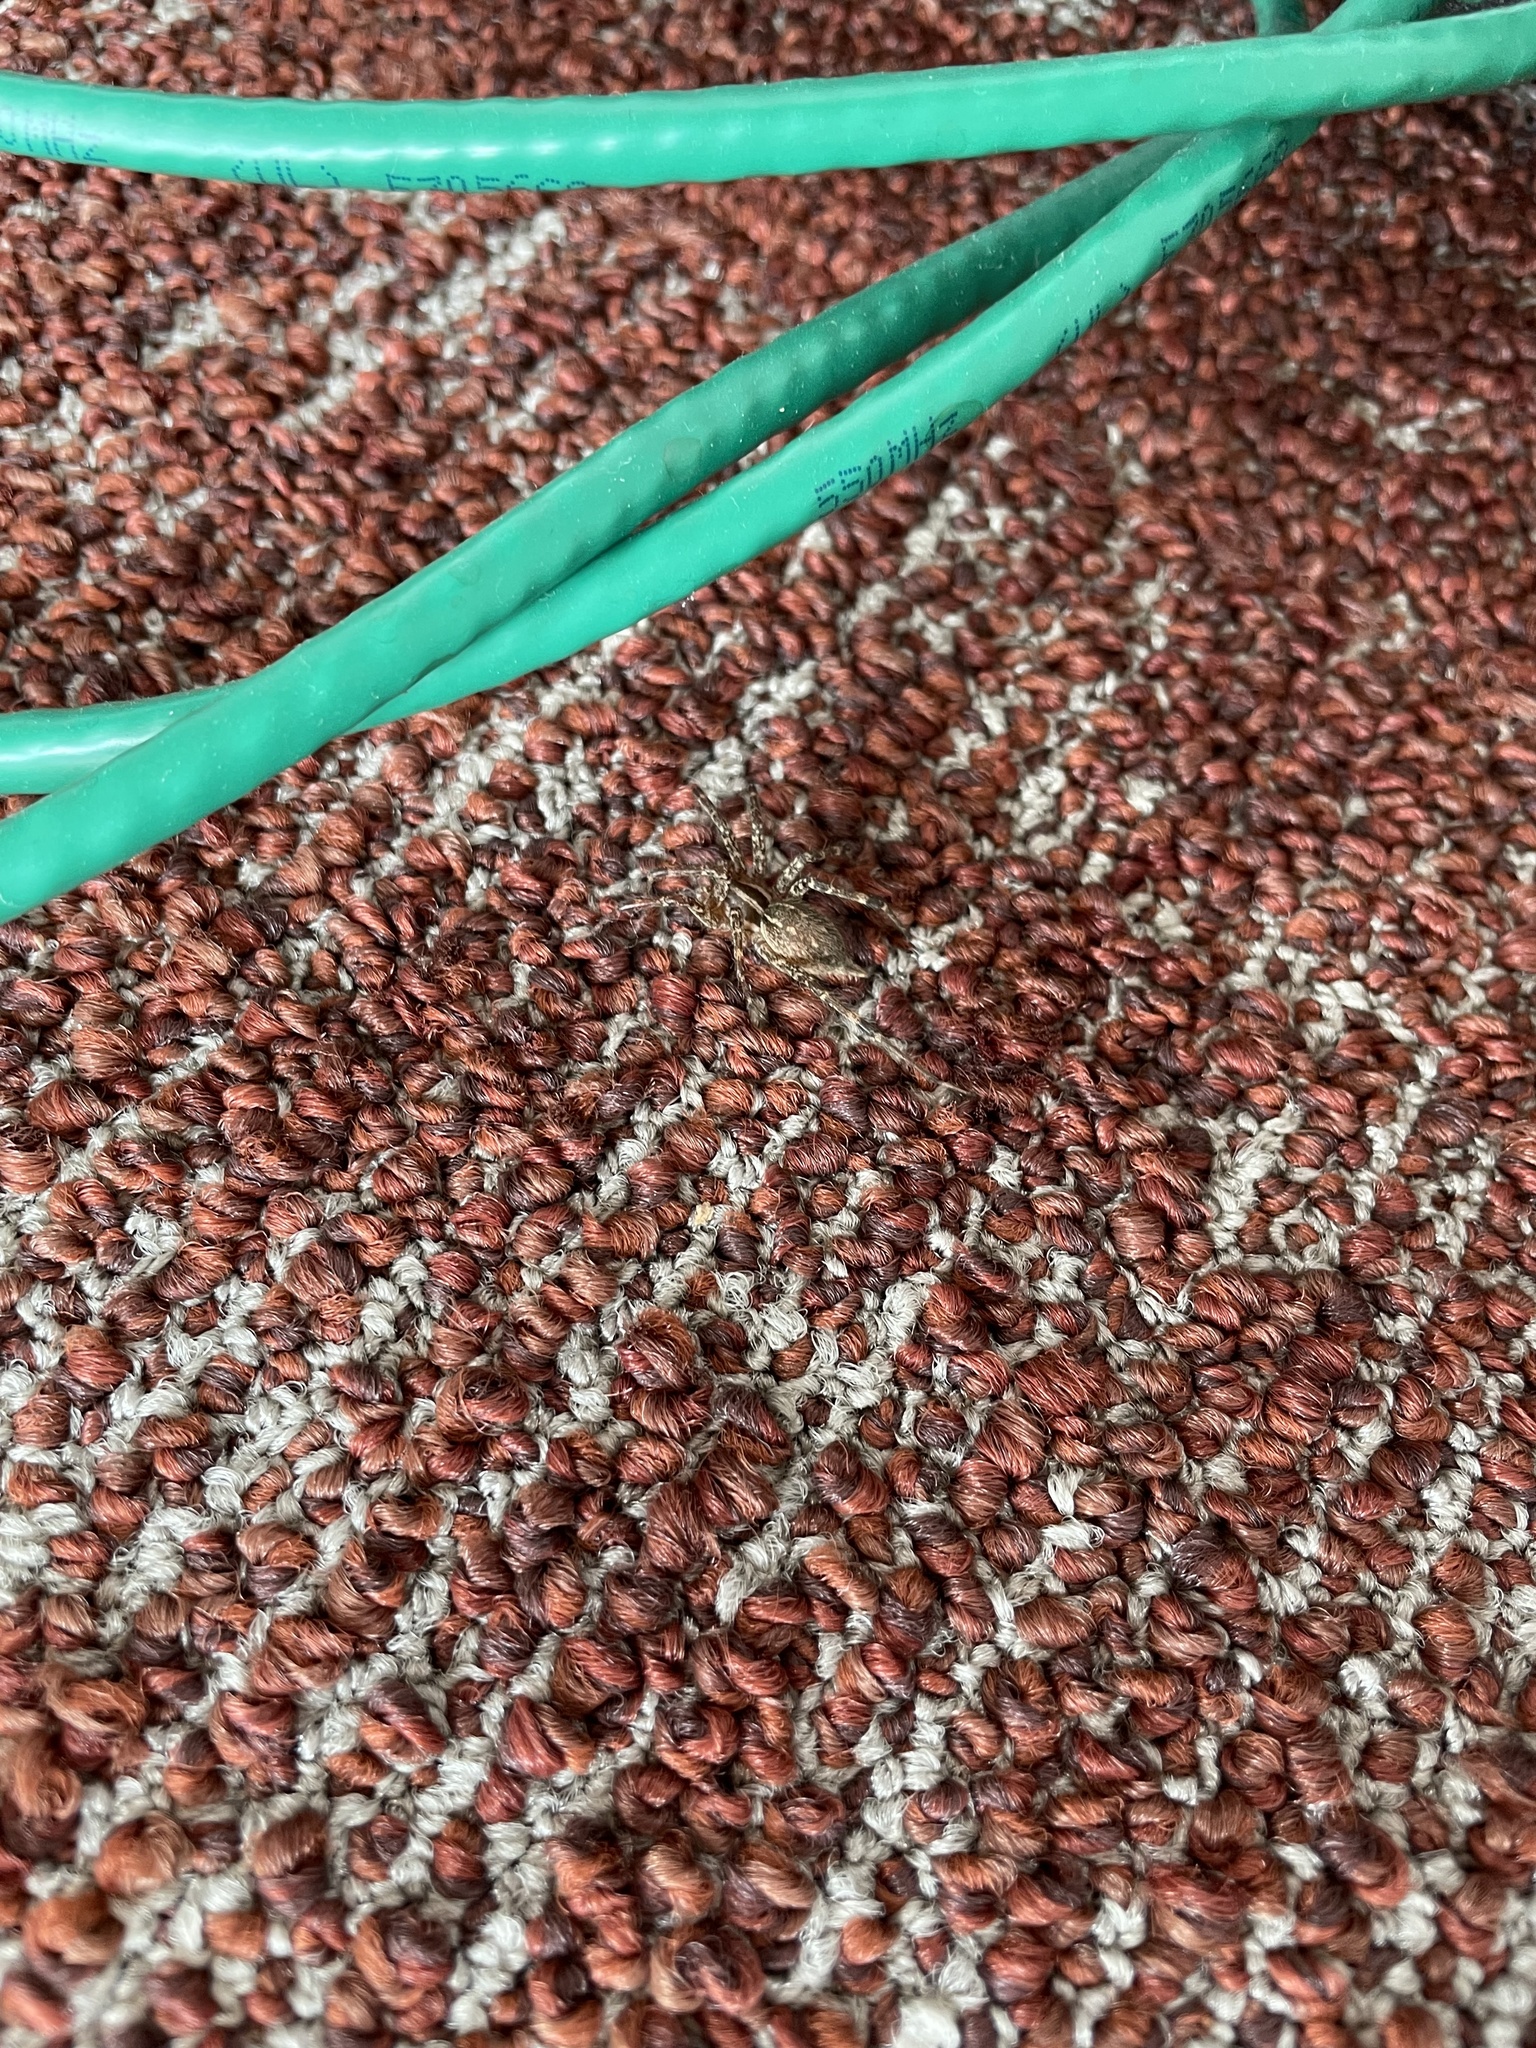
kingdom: Animalia
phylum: Arthropoda
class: Arachnida
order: Araneae
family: Agelenidae
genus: Agelenopsis
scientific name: Agelenopsis
